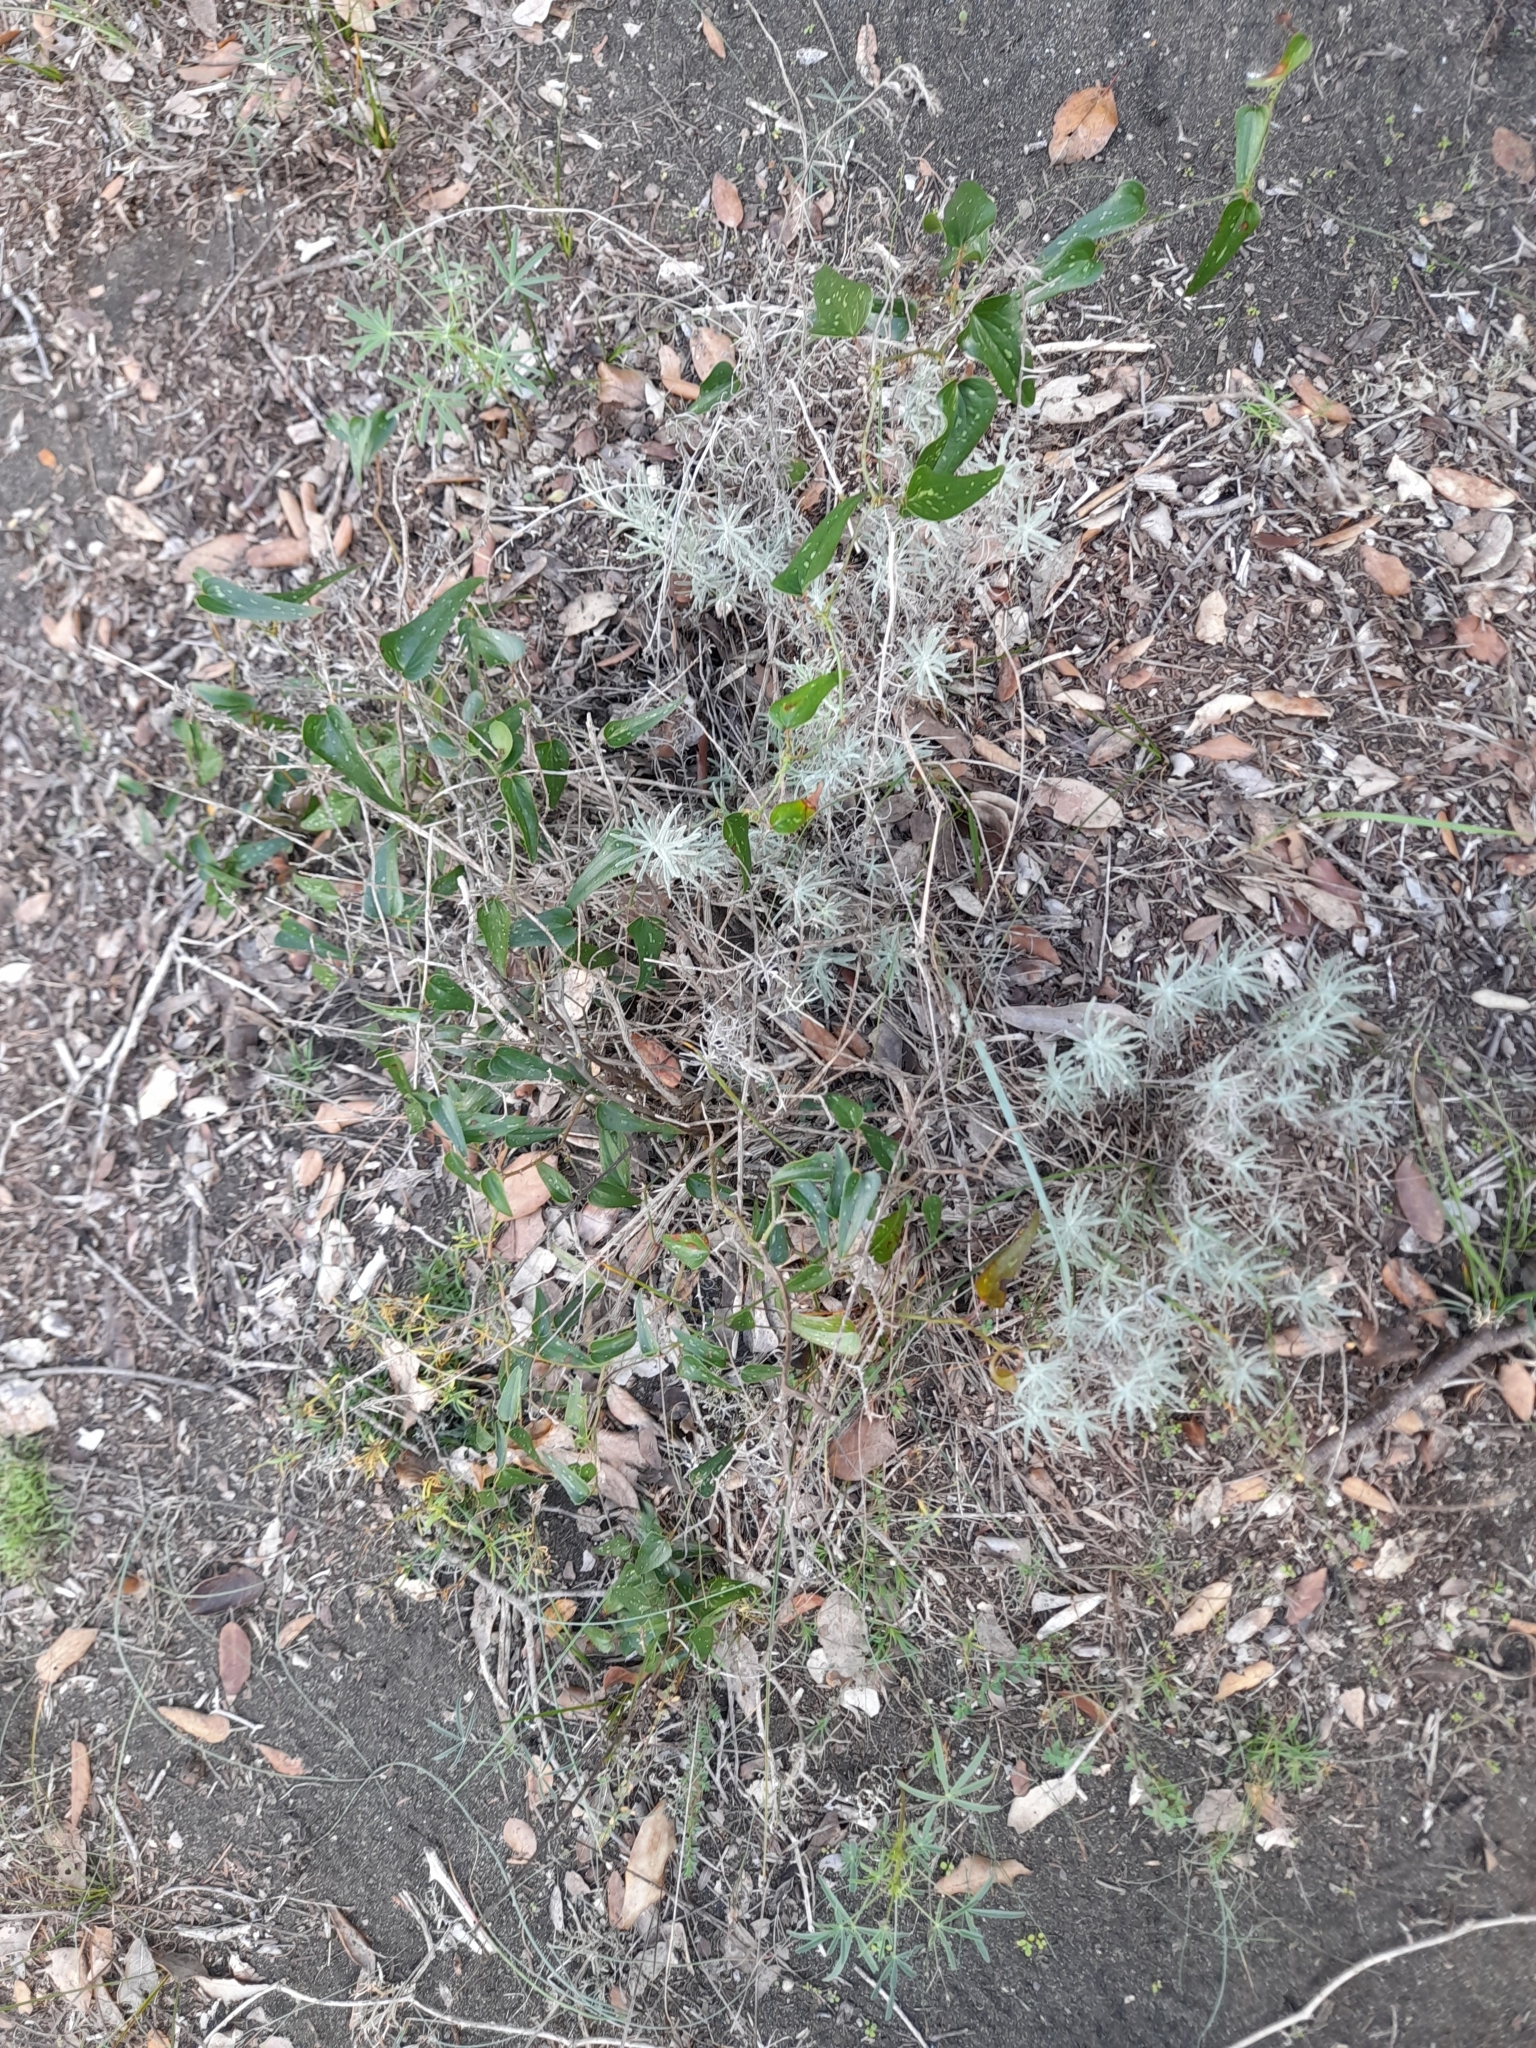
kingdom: Plantae
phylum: Tracheophyta
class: Liliopsida
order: Liliales
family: Smilacaceae
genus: Smilax
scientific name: Smilax aspera
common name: Common smilax
